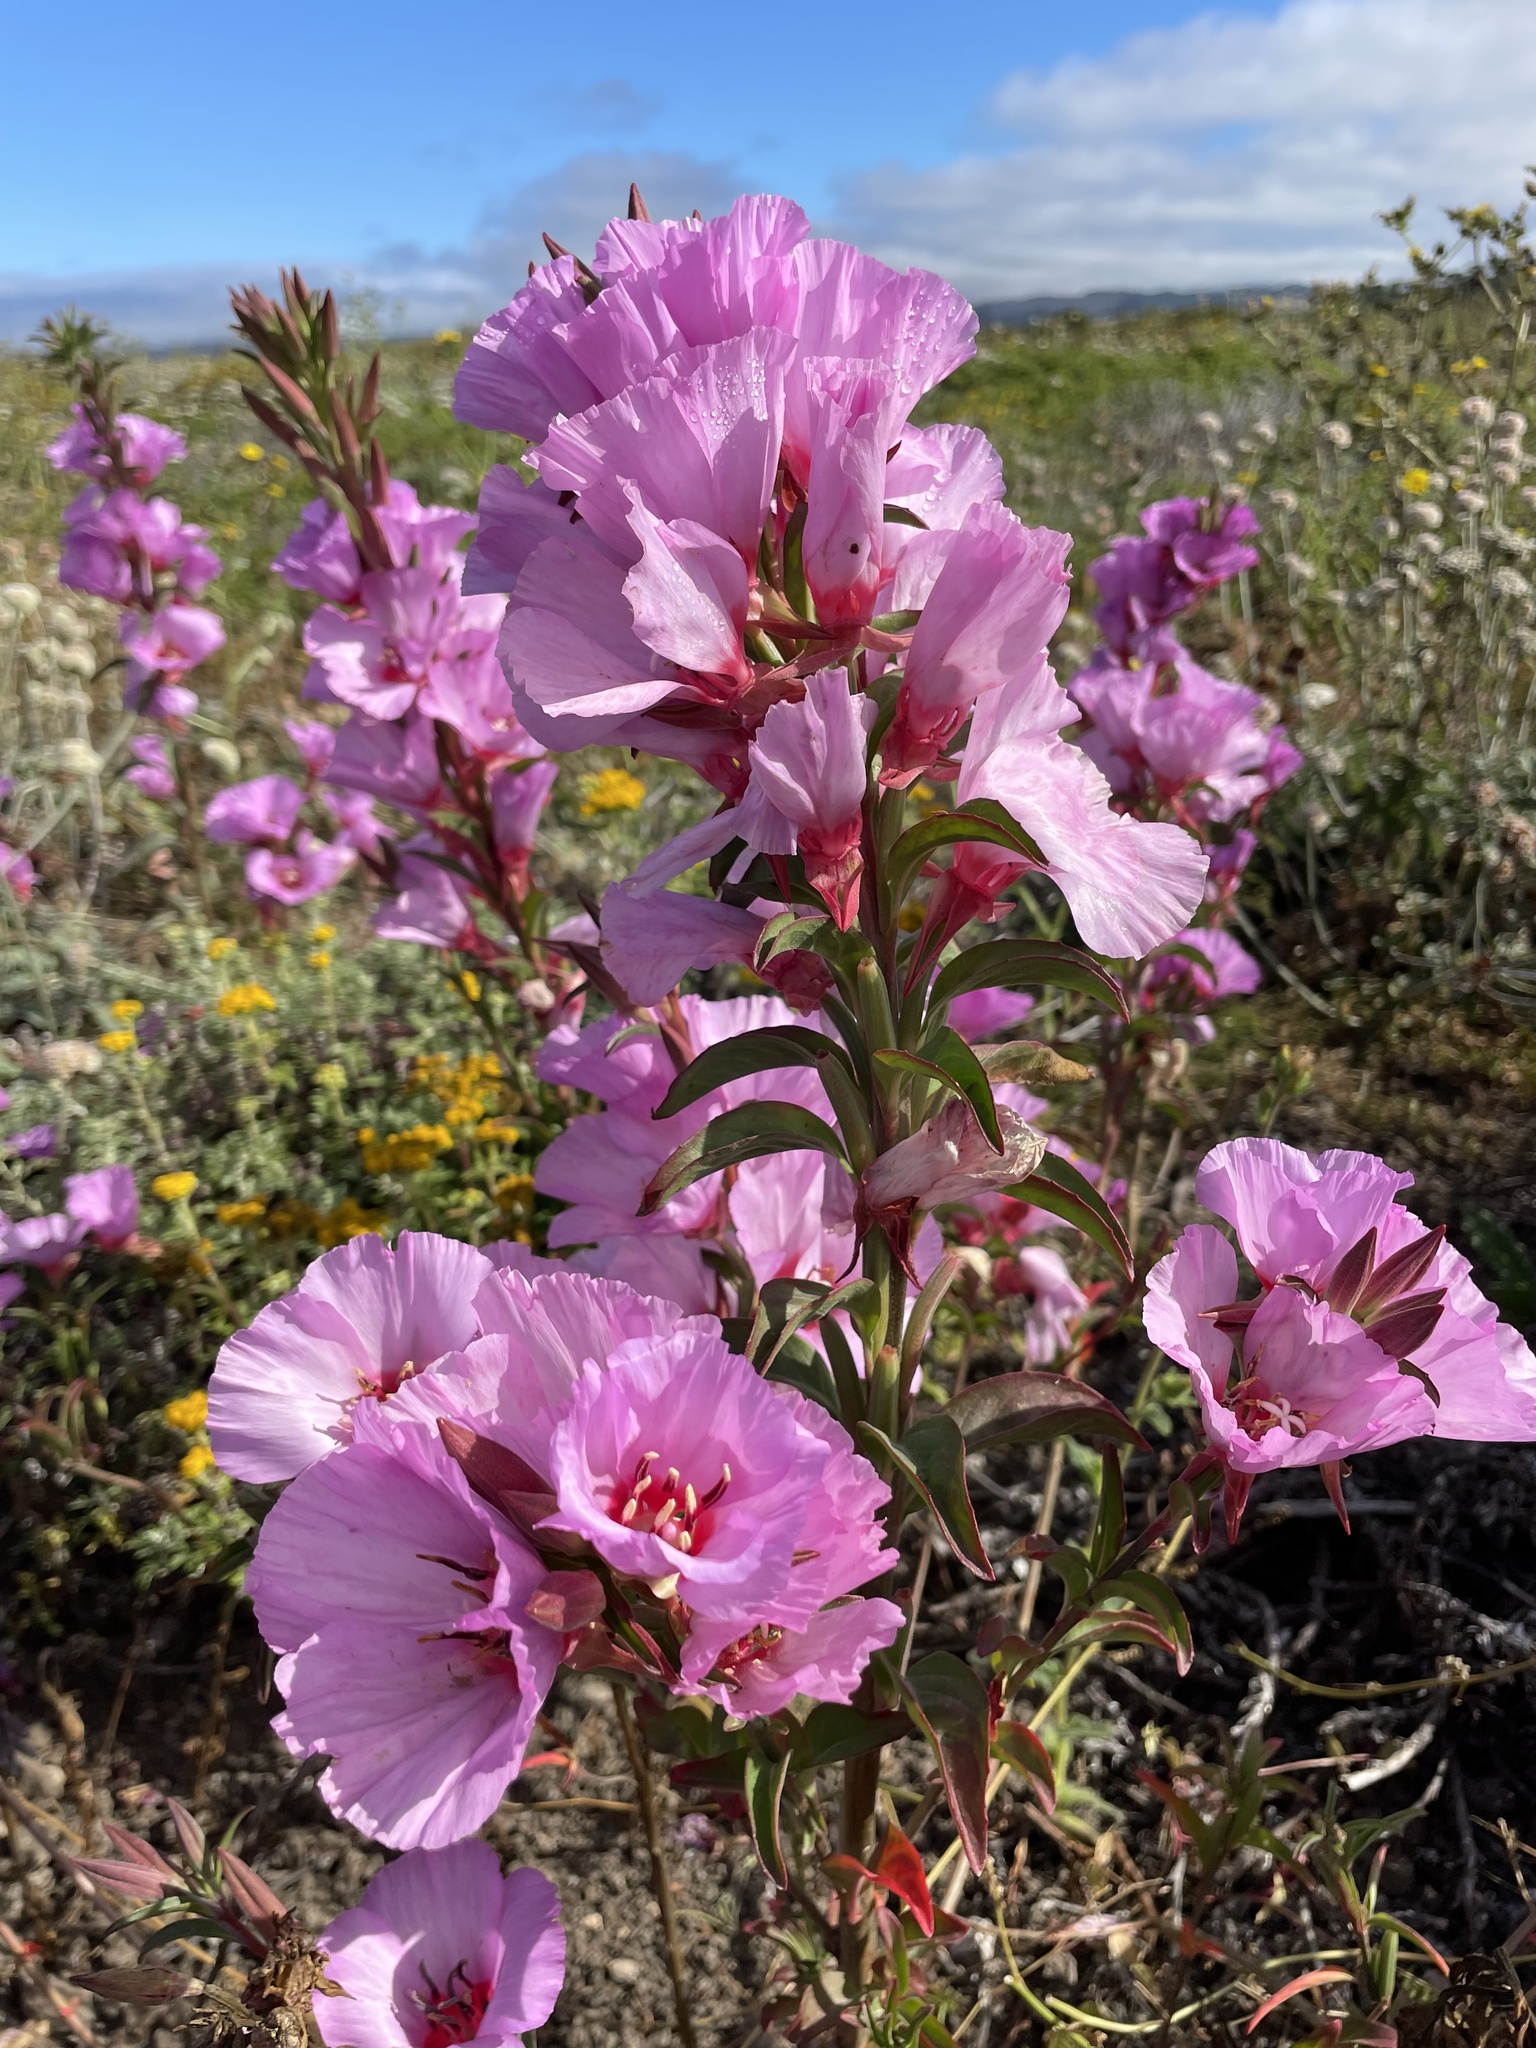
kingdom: Plantae
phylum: Tracheophyta
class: Magnoliopsida
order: Myrtales
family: Onagraceae
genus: Clarkia
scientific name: Clarkia rubicunda
